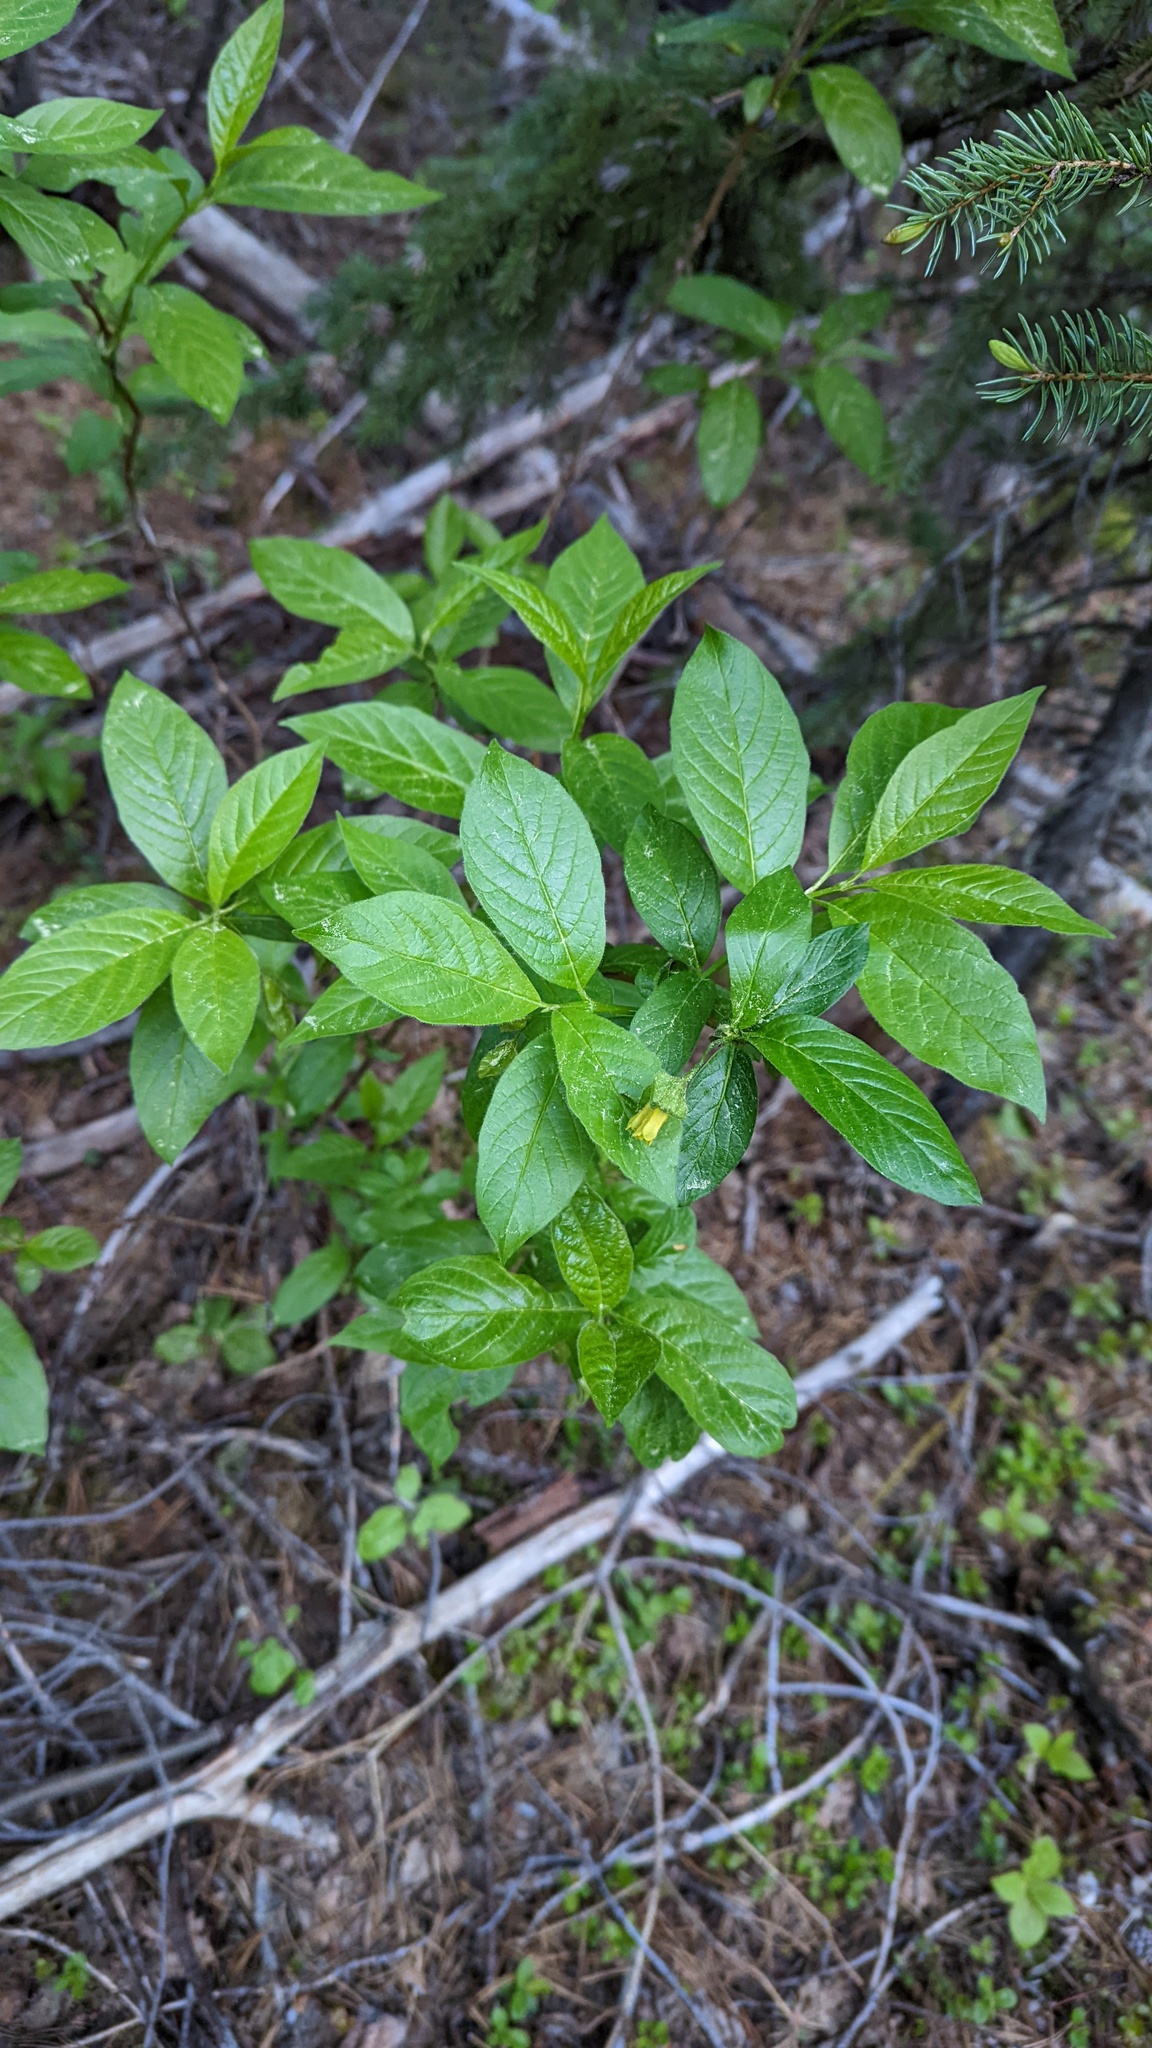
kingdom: Plantae
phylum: Tracheophyta
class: Magnoliopsida
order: Dipsacales
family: Caprifoliaceae
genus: Lonicera
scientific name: Lonicera involucrata
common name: Californian honeysuckle
